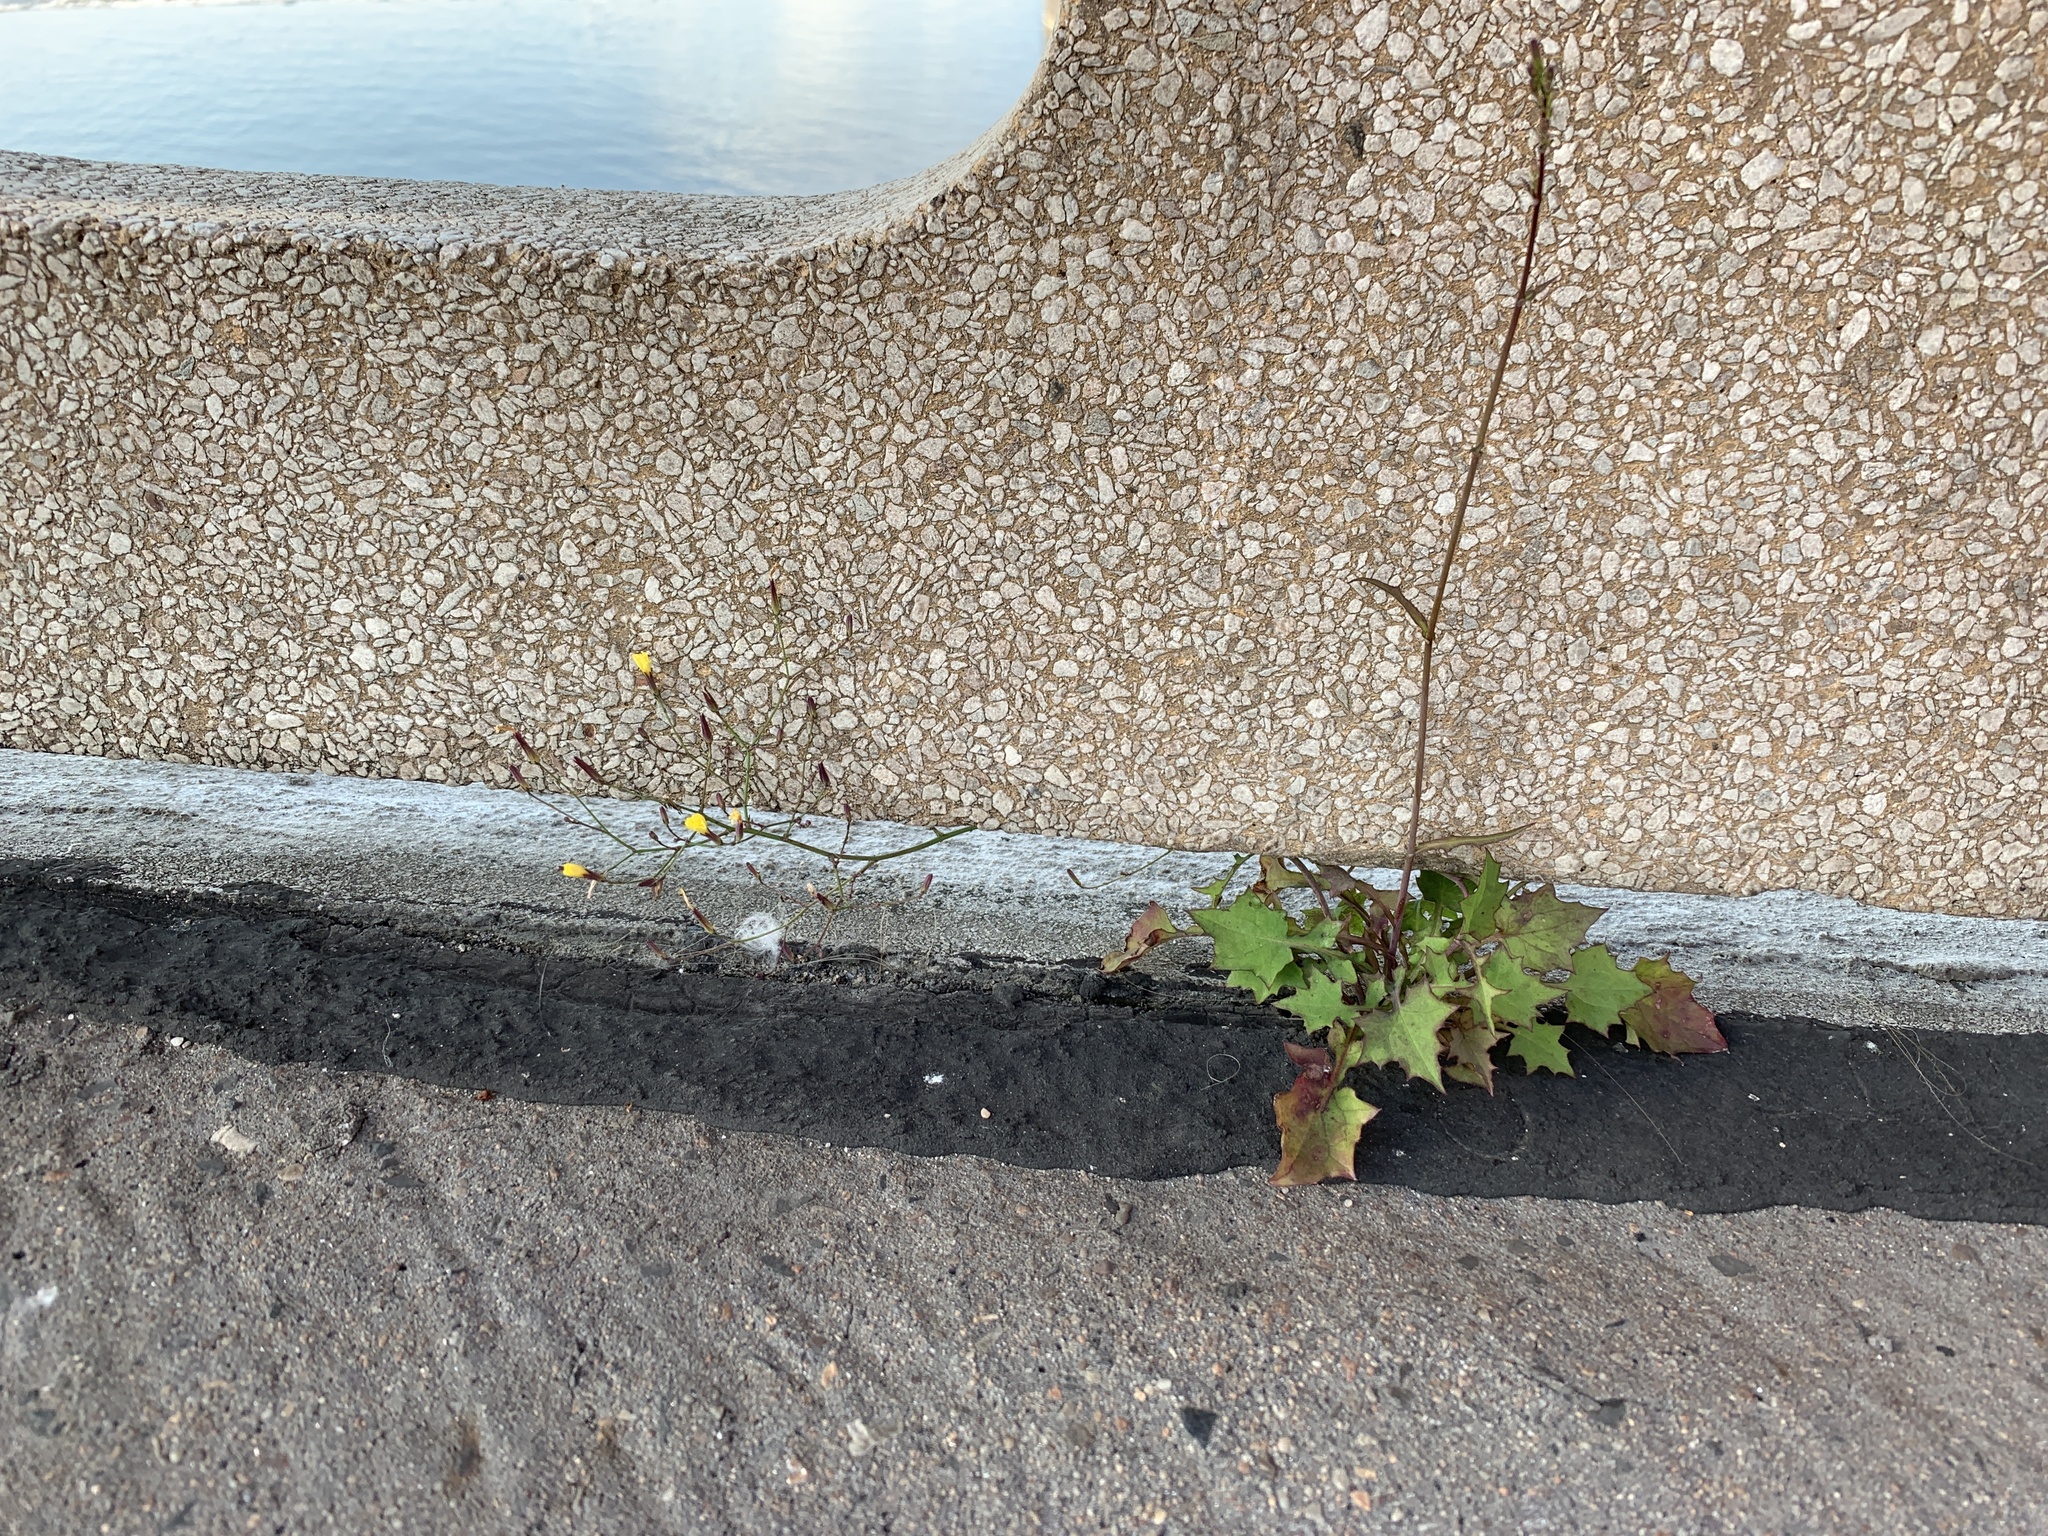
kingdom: Plantae
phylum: Tracheophyta
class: Magnoliopsida
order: Asterales
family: Asteraceae
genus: Mycelis
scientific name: Mycelis muralis
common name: Wall lettuce
